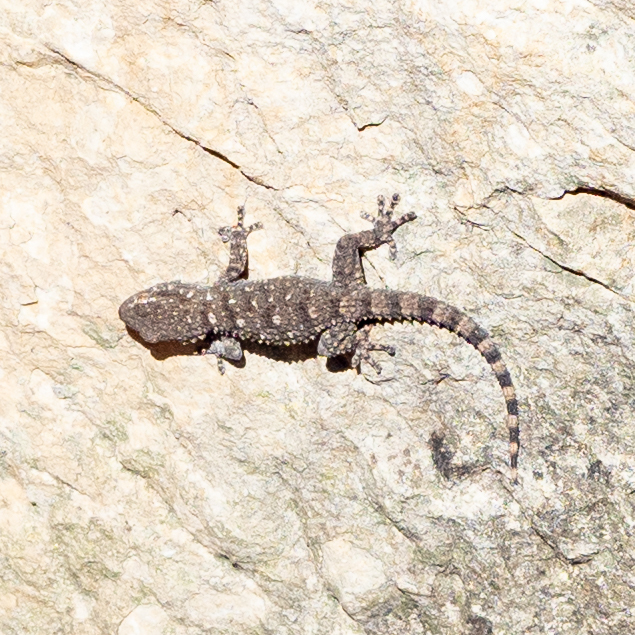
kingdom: Animalia
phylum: Chordata
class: Squamata
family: Phyllodactylidae
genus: Tarentola
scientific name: Tarentola mauritanica
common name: Moorish gecko
